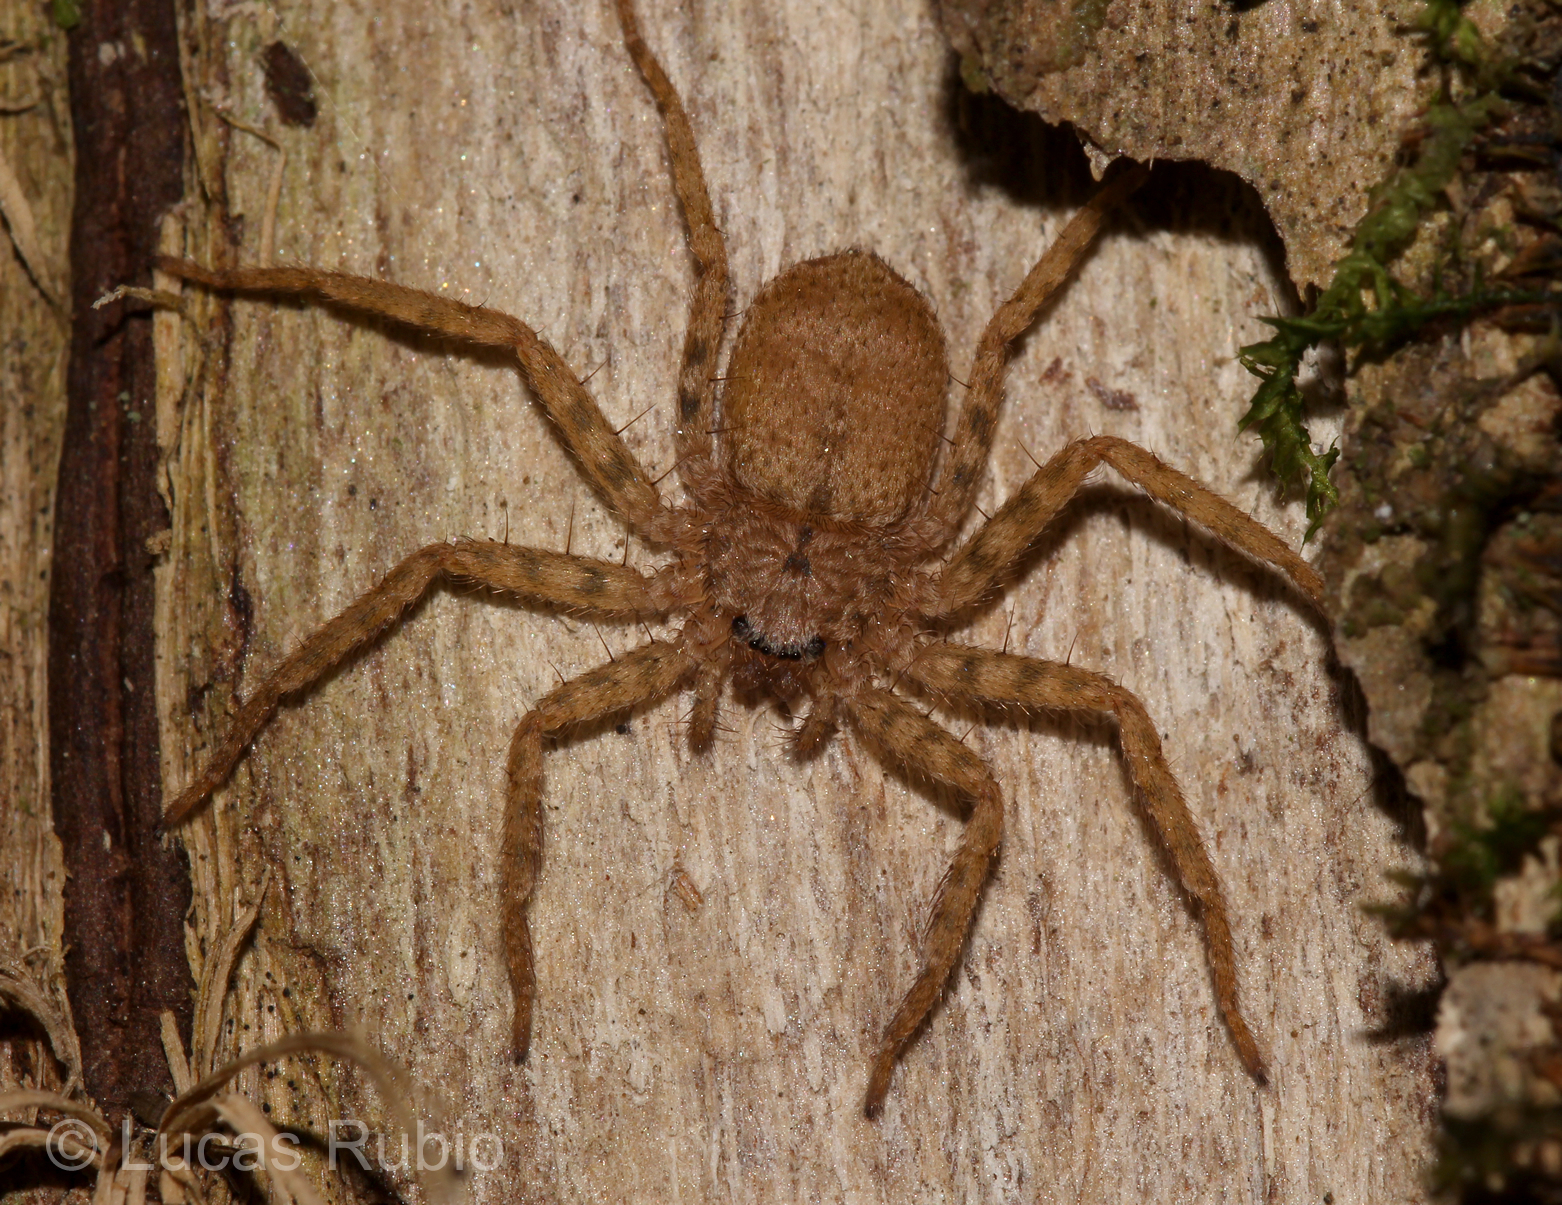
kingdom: Animalia
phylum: Arthropoda
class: Arachnida
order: Araneae
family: Selenopidae
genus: Selenops
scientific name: Selenops
